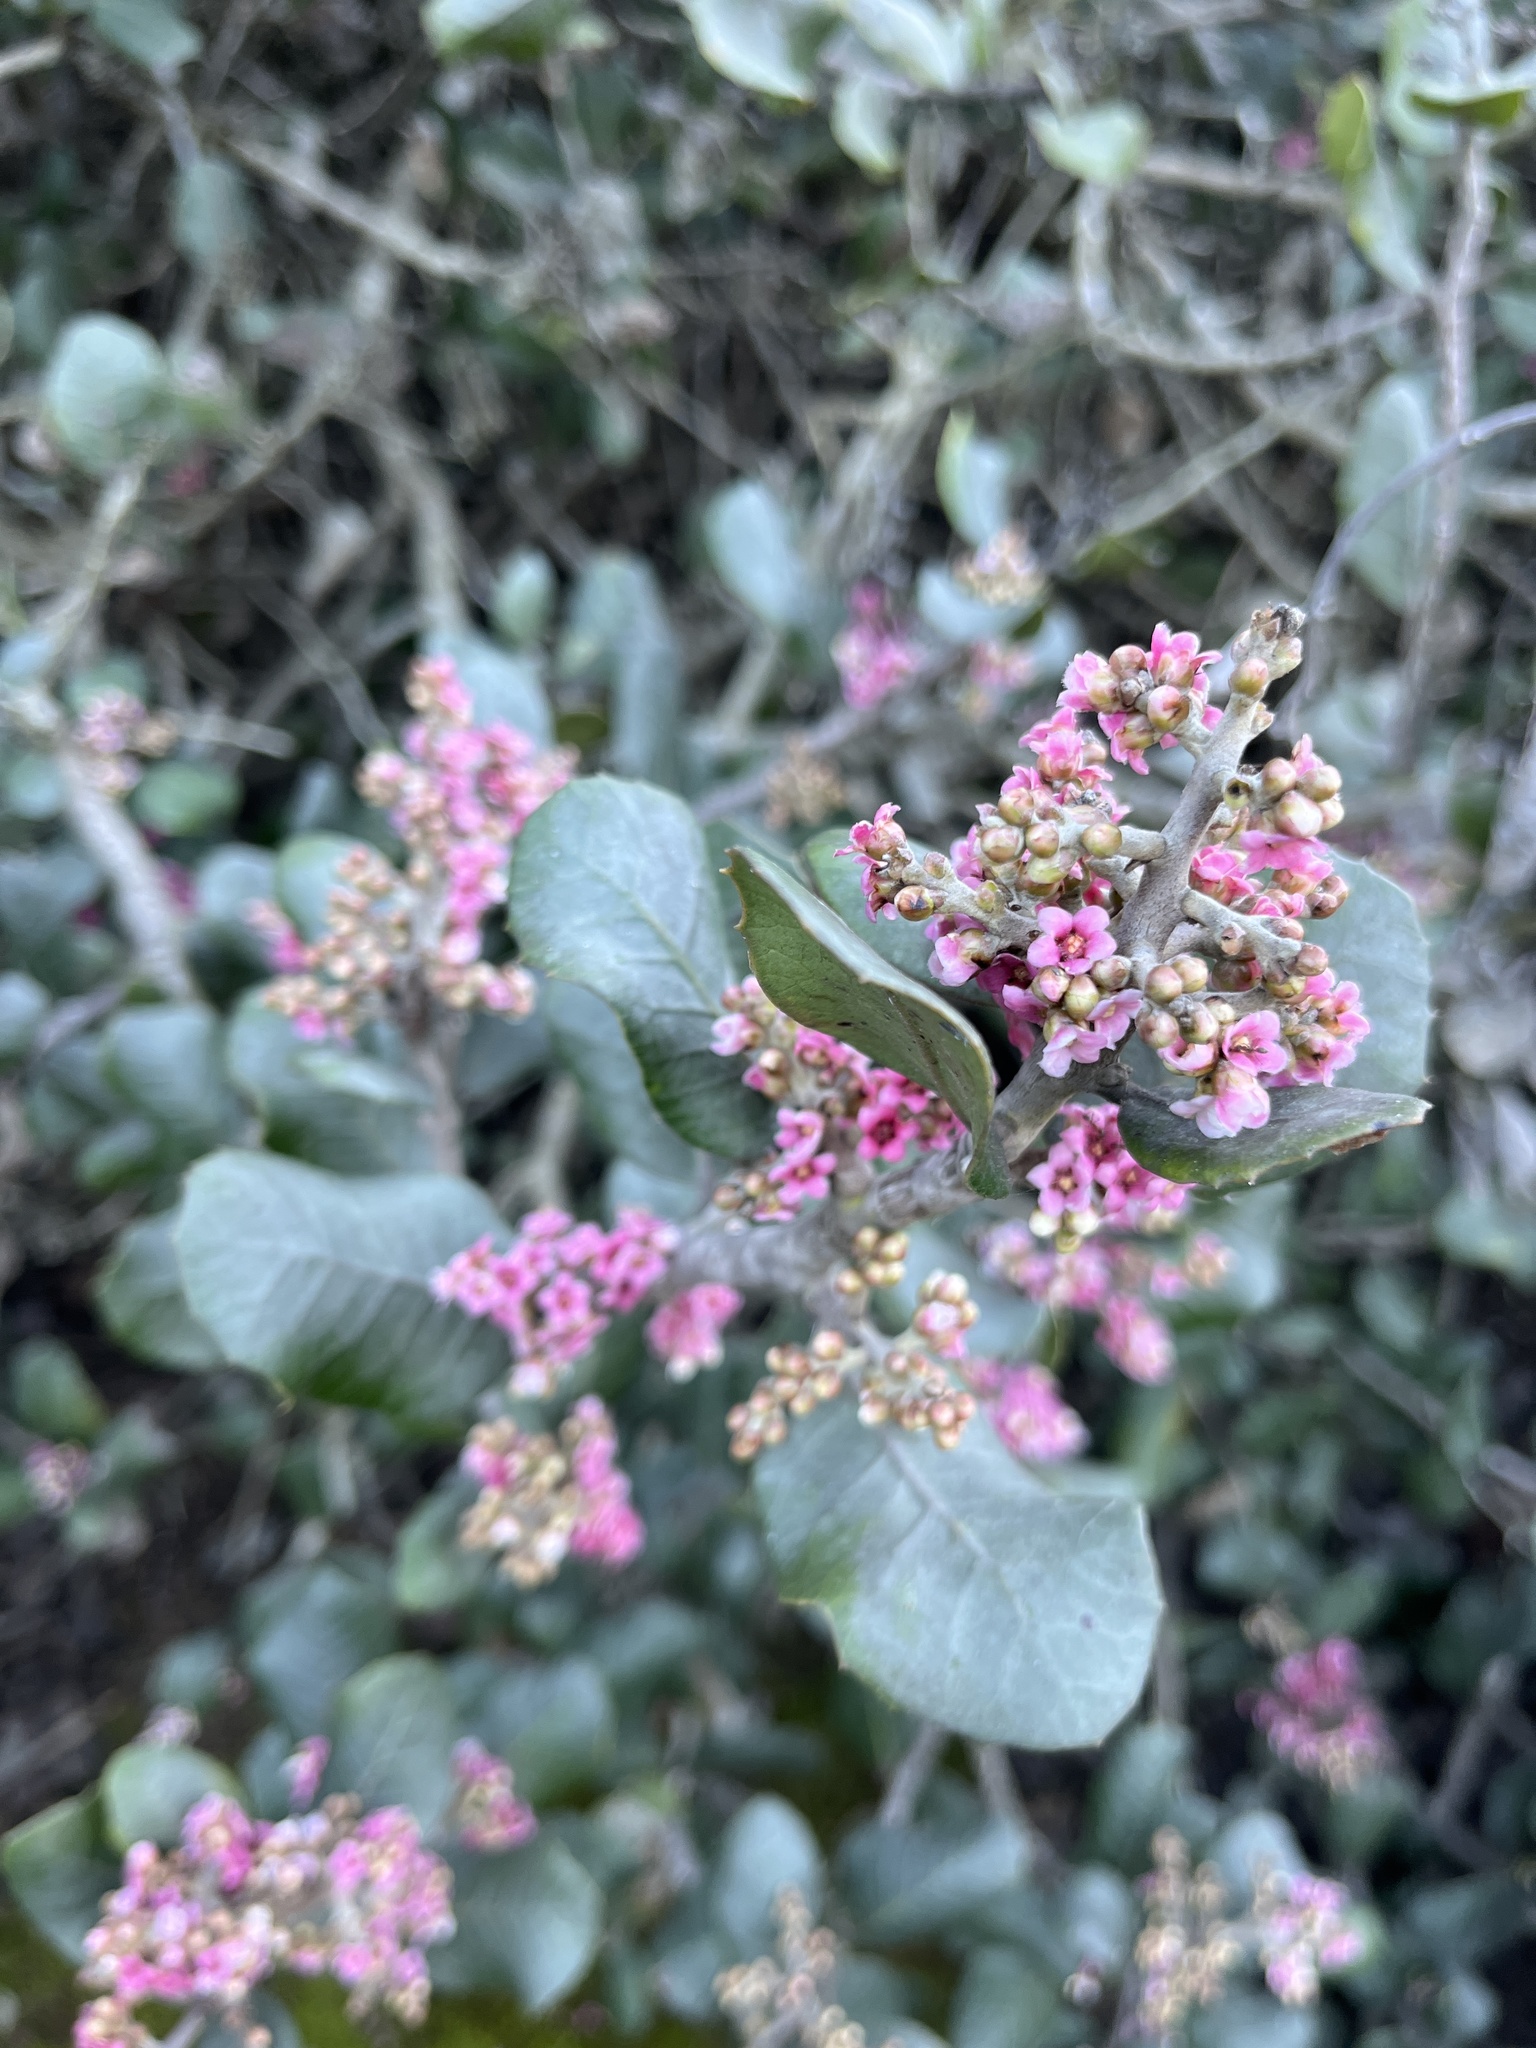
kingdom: Plantae
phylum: Tracheophyta
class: Magnoliopsida
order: Sapindales
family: Anacardiaceae
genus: Rhus
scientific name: Rhus integrifolia
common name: Lemonade sumac
